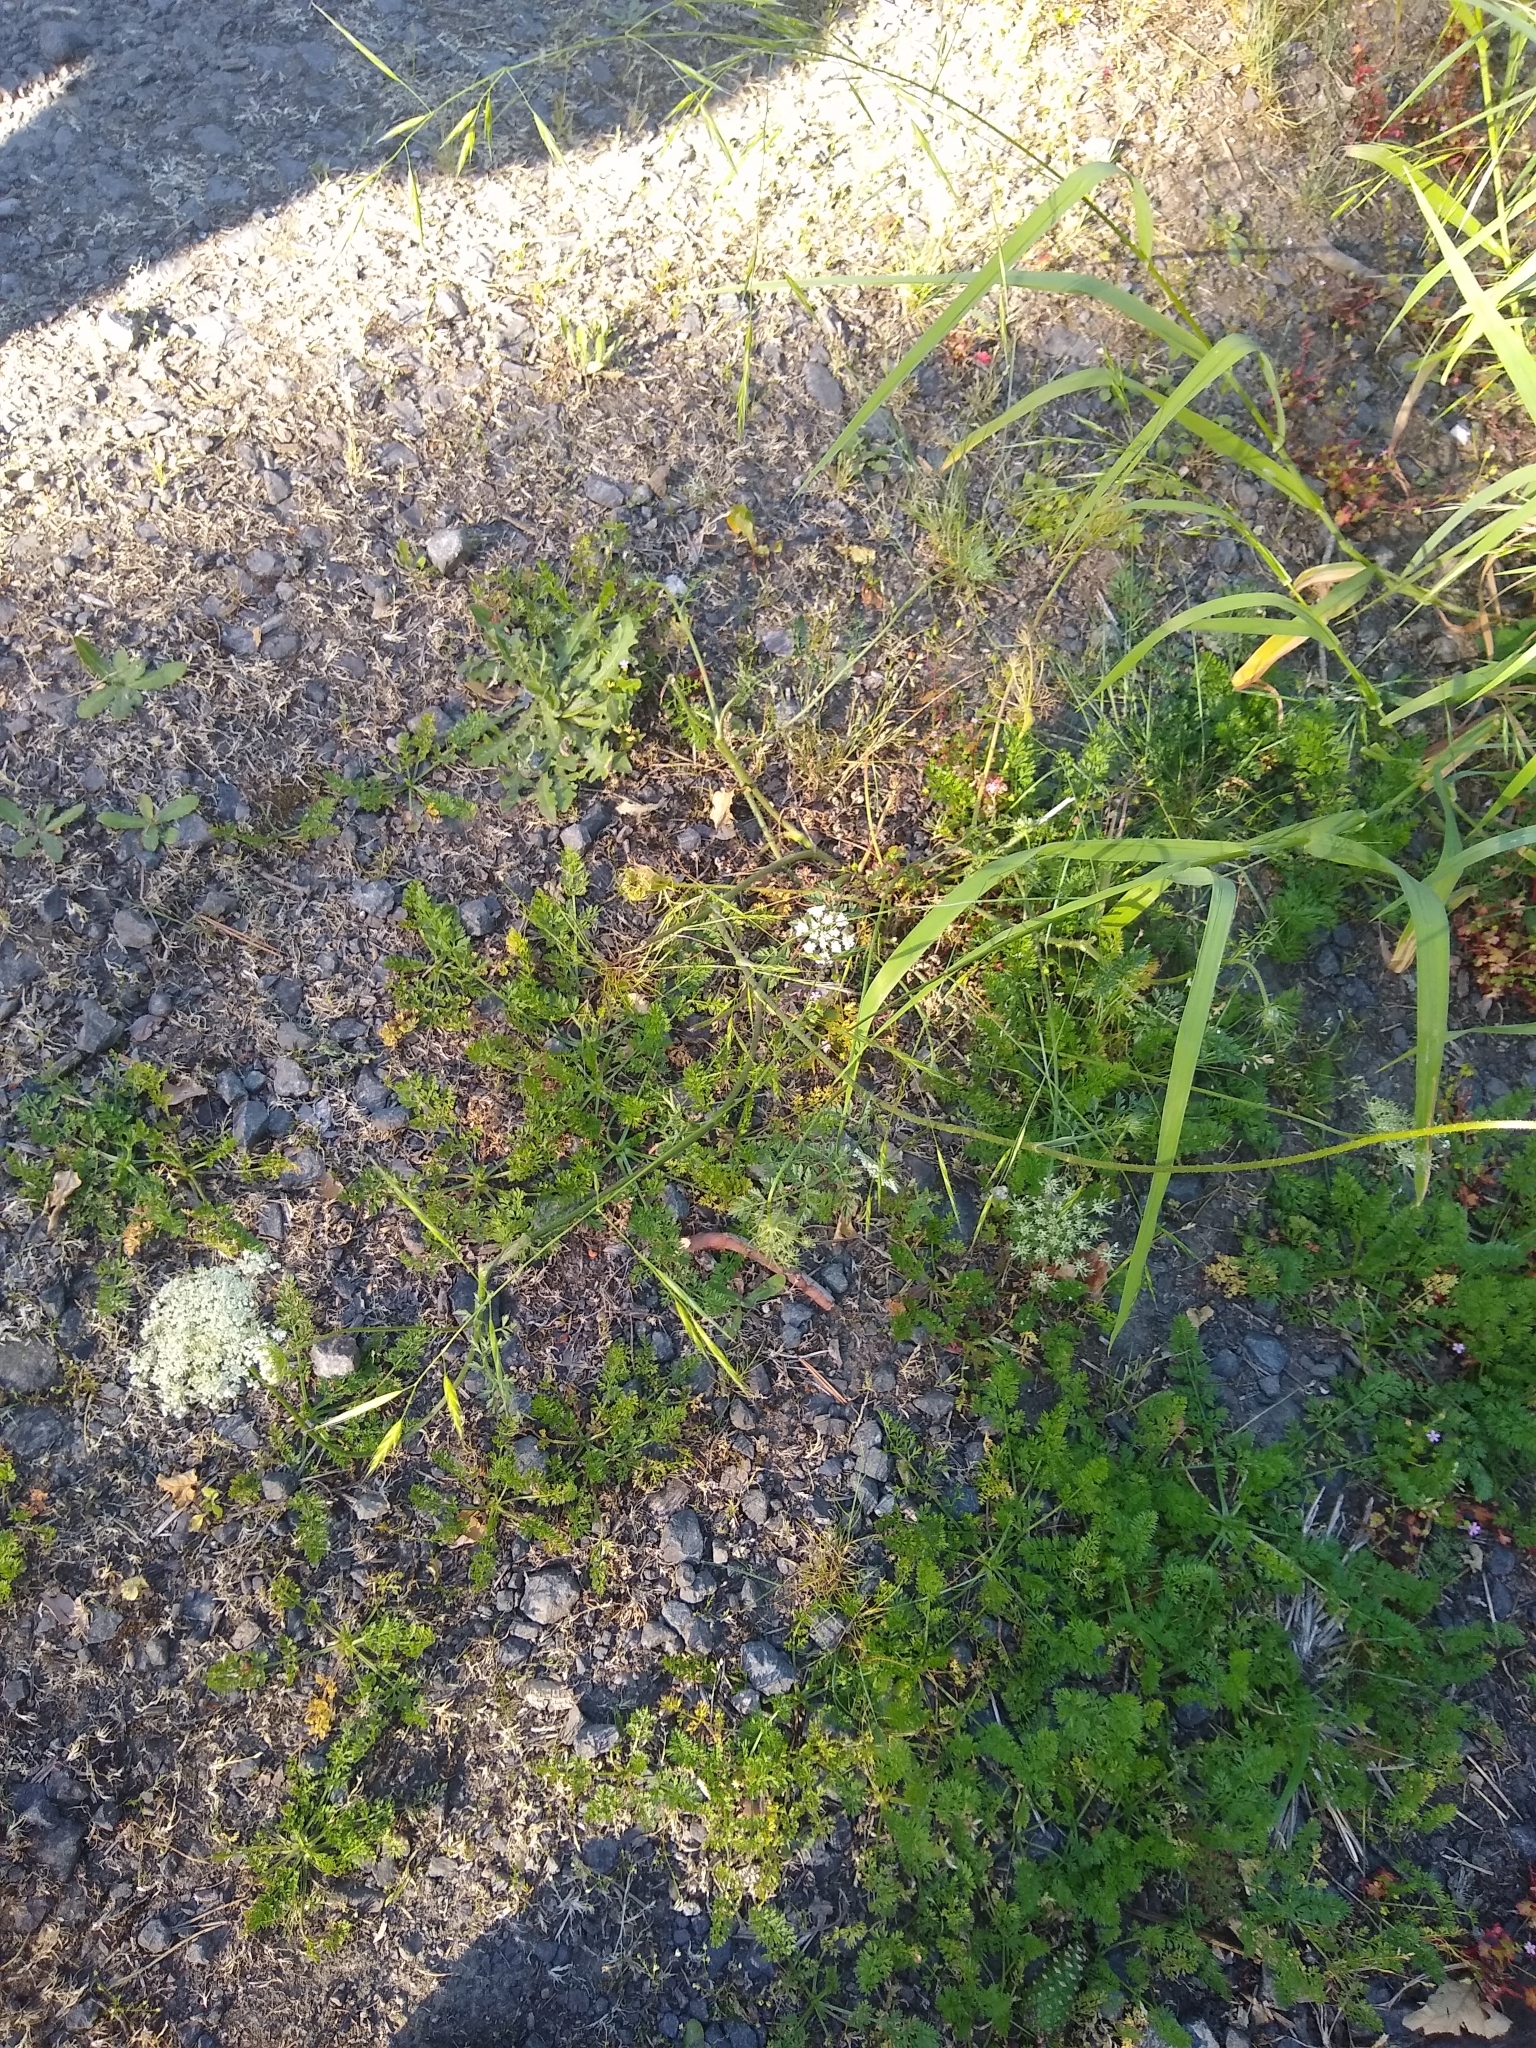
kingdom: Plantae
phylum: Tracheophyta
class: Magnoliopsida
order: Apiales
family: Apiaceae
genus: Daucus
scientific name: Daucus carota
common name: Wild carrot
